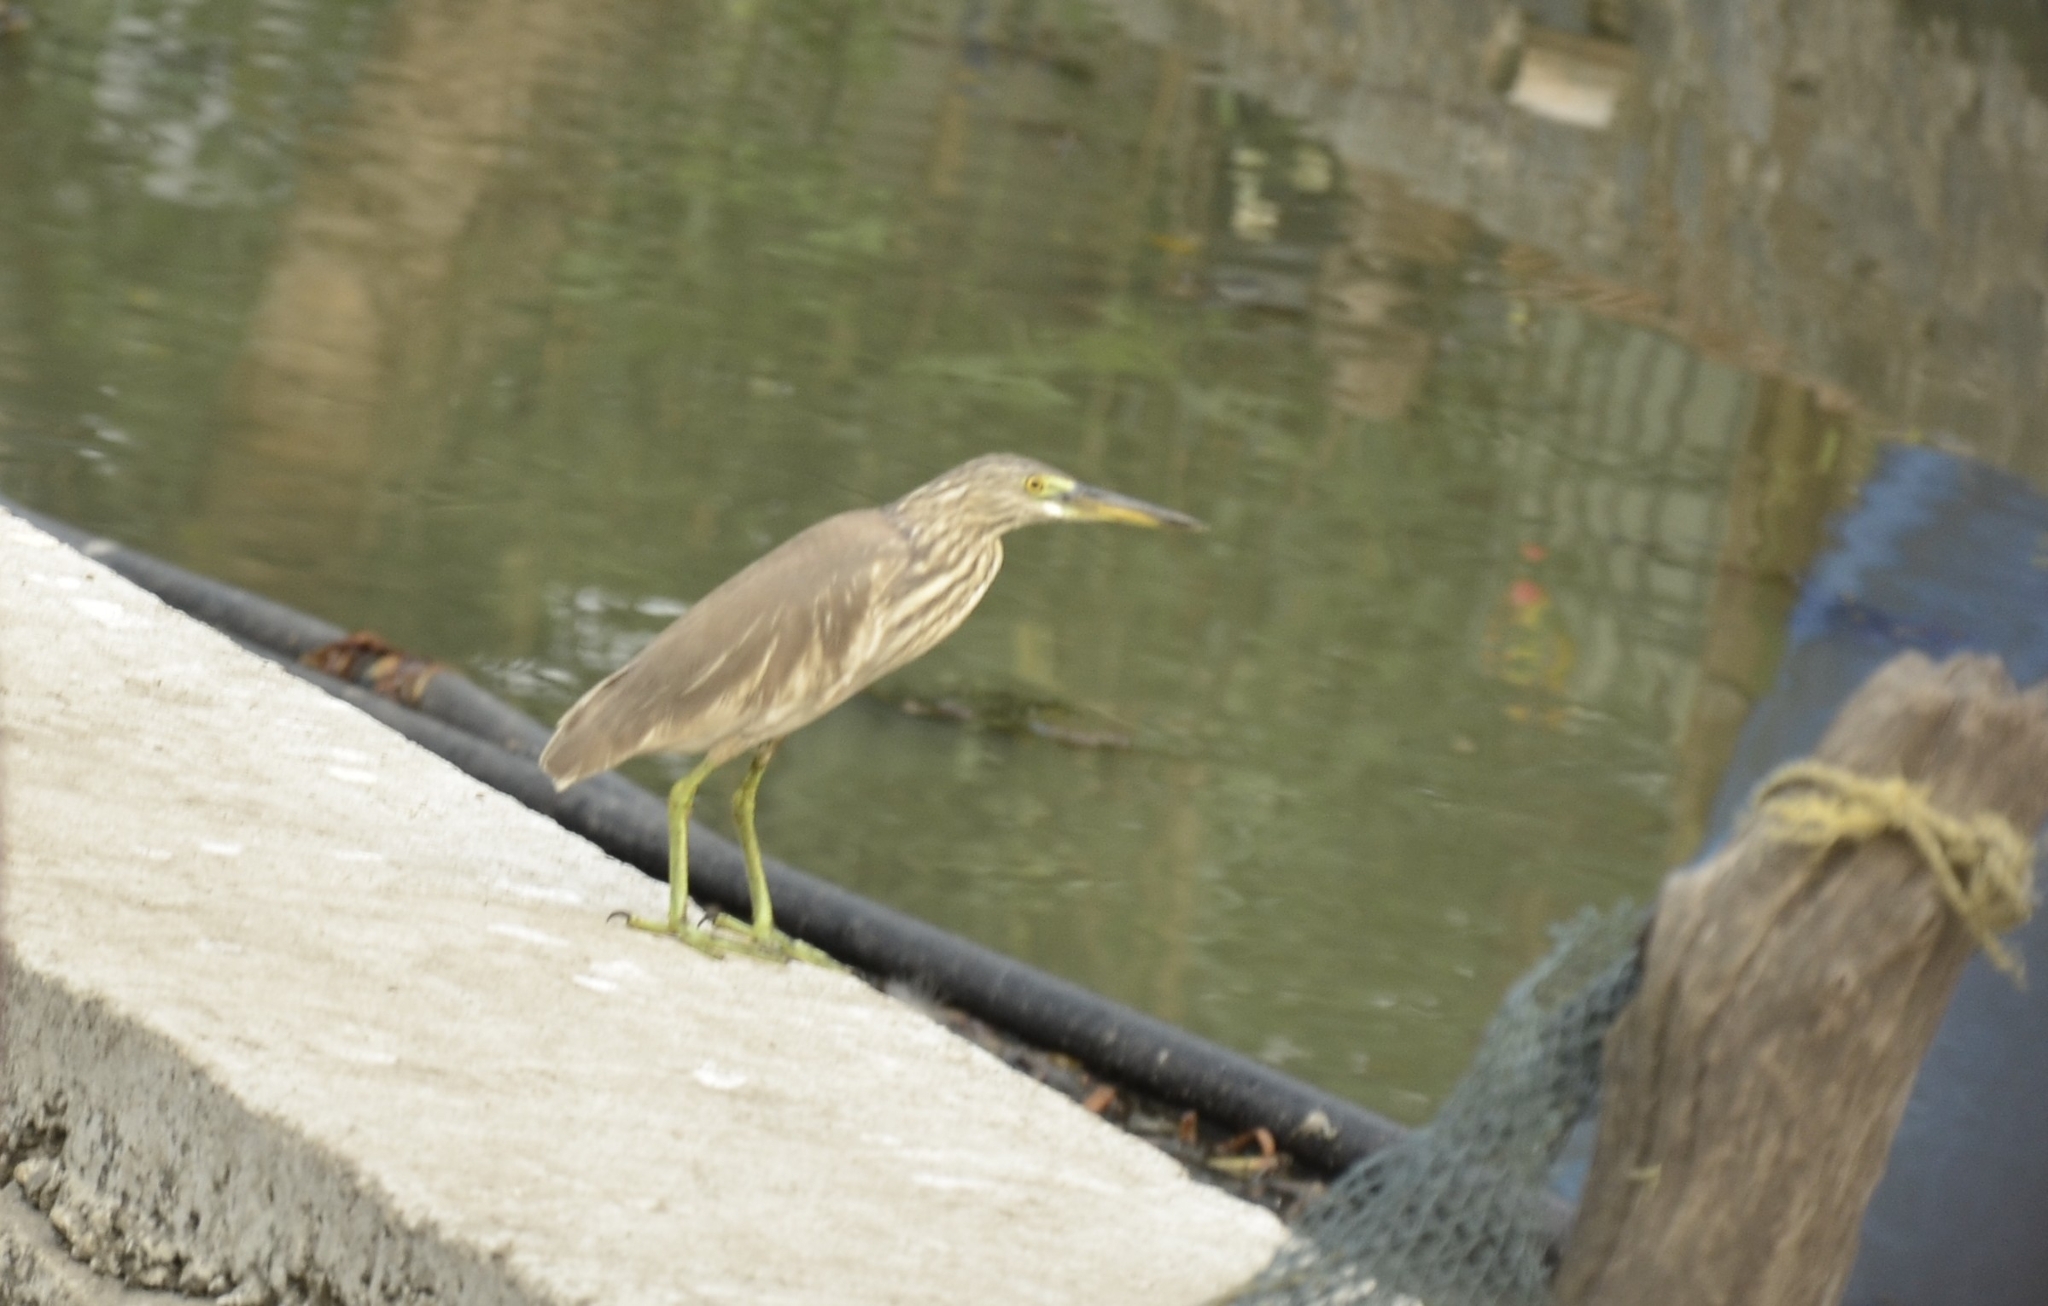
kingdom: Animalia
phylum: Chordata
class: Aves
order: Pelecaniformes
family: Ardeidae
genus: Ardeola
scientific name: Ardeola grayii
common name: Indian pond heron
